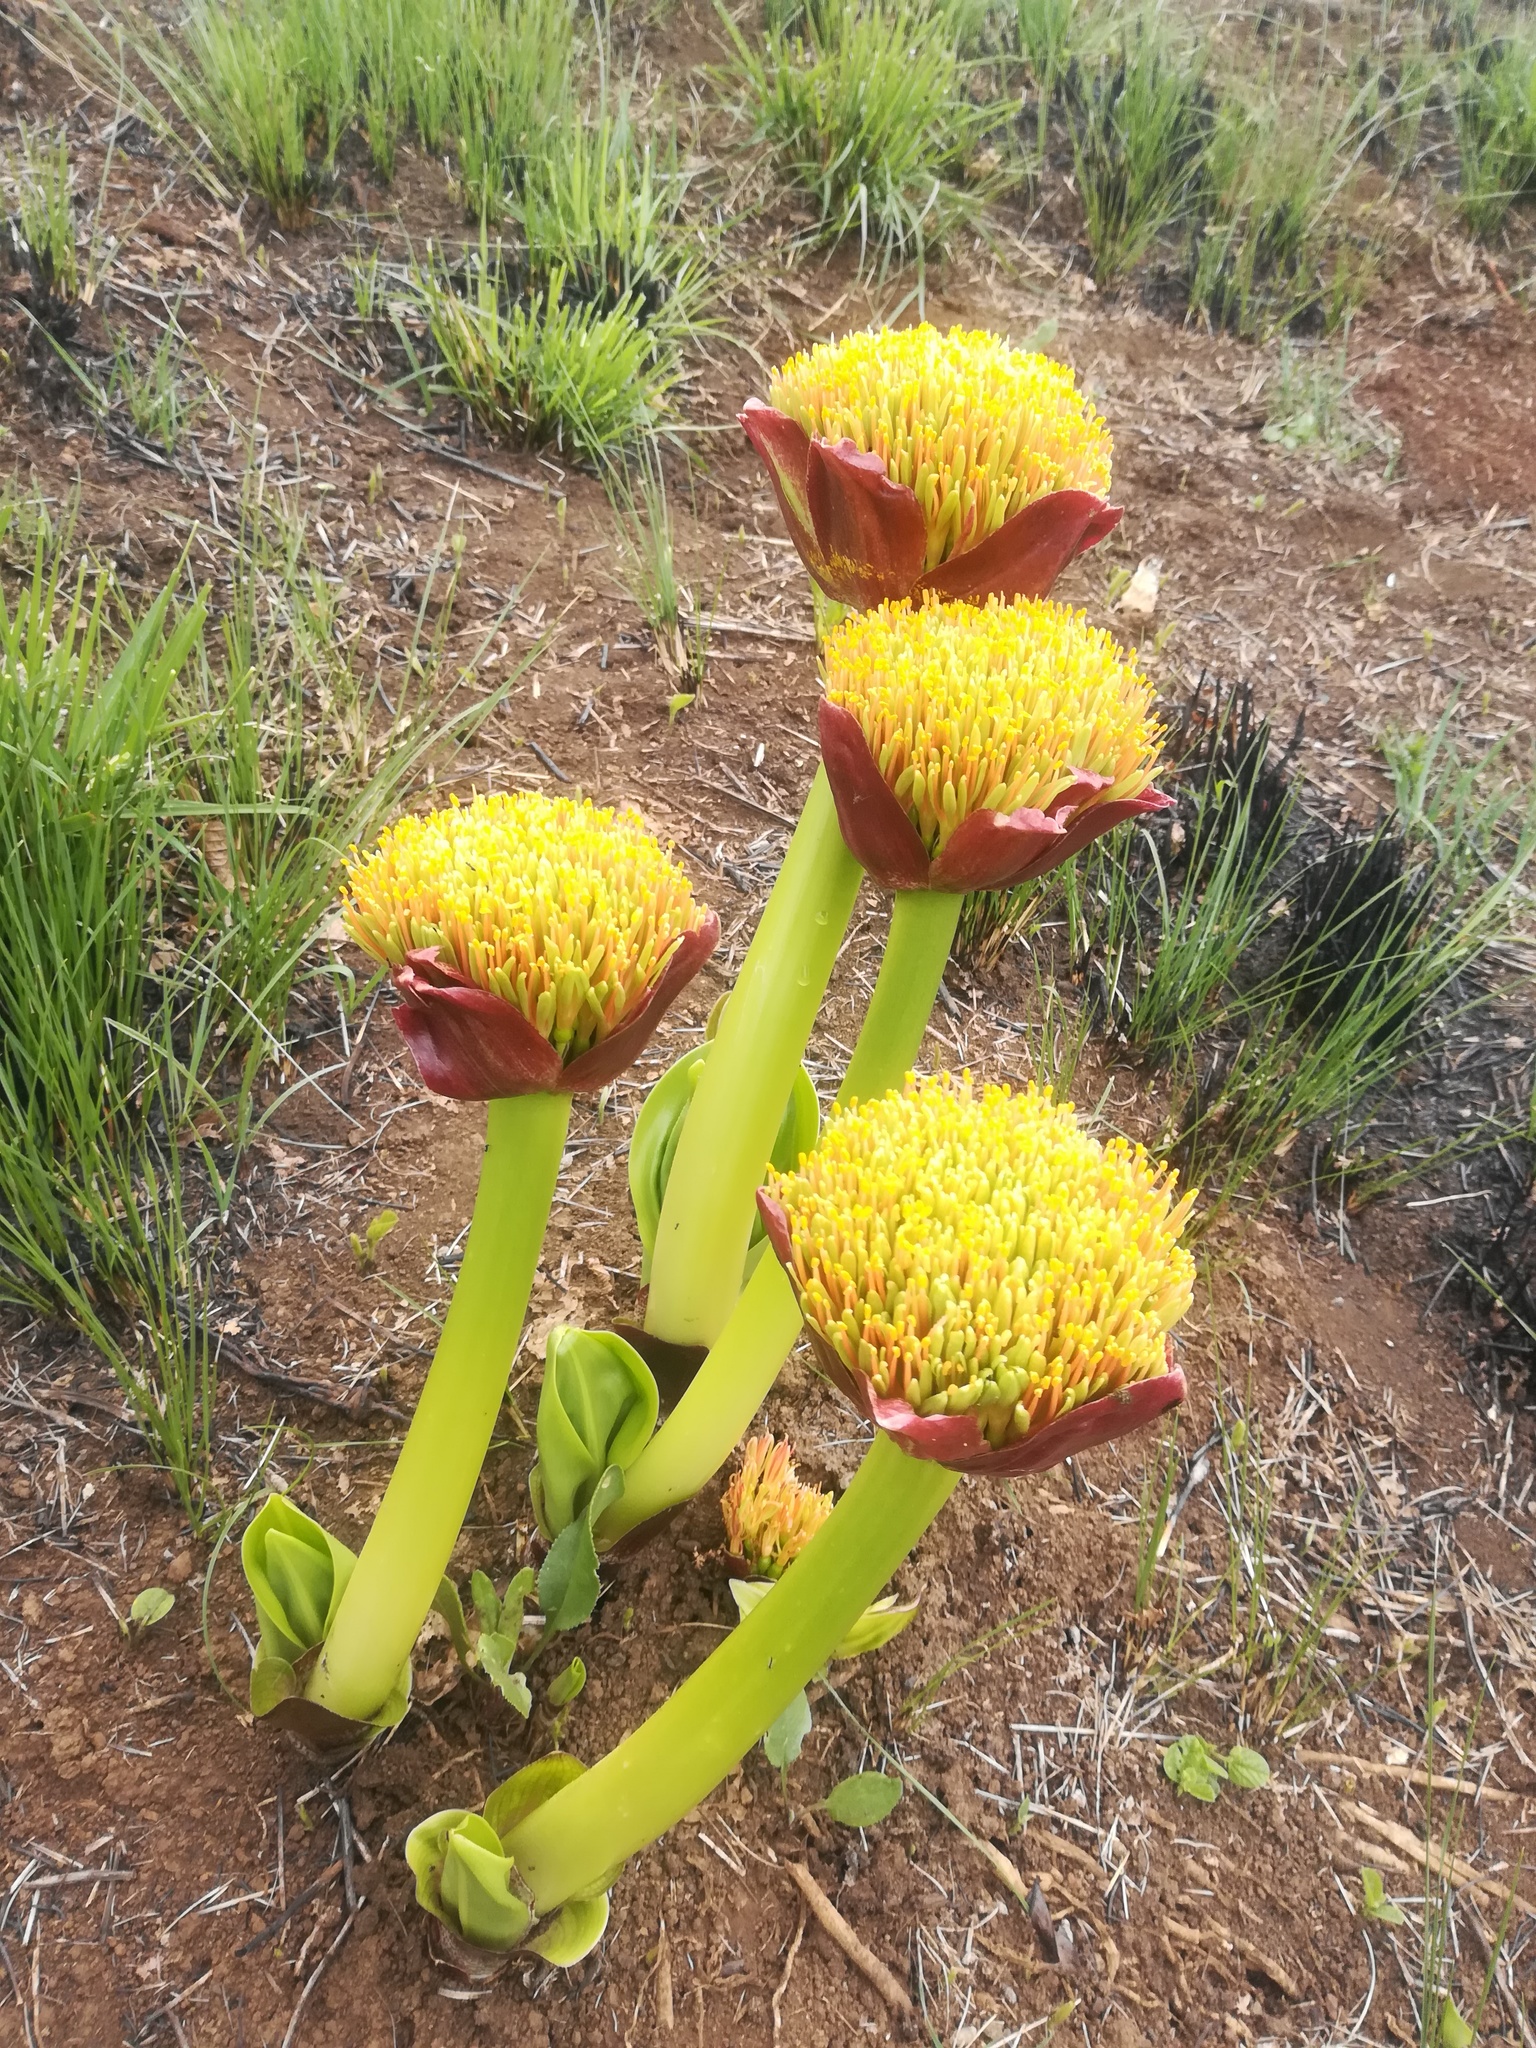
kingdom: Plantae
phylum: Tracheophyta
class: Liliopsida
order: Asparagales
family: Amaryllidaceae
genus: Scadoxus
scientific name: Scadoxus puniceus
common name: Royal-paintbrush
